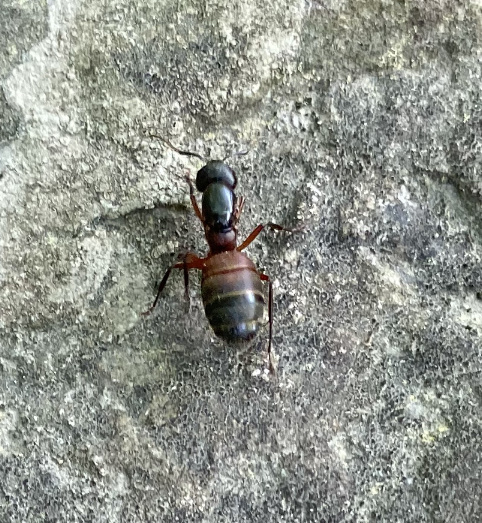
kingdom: Animalia
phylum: Arthropoda
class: Insecta
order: Hymenoptera
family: Formicidae
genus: Camponotus
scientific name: Camponotus chromaiodes
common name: Red carpenter ant
